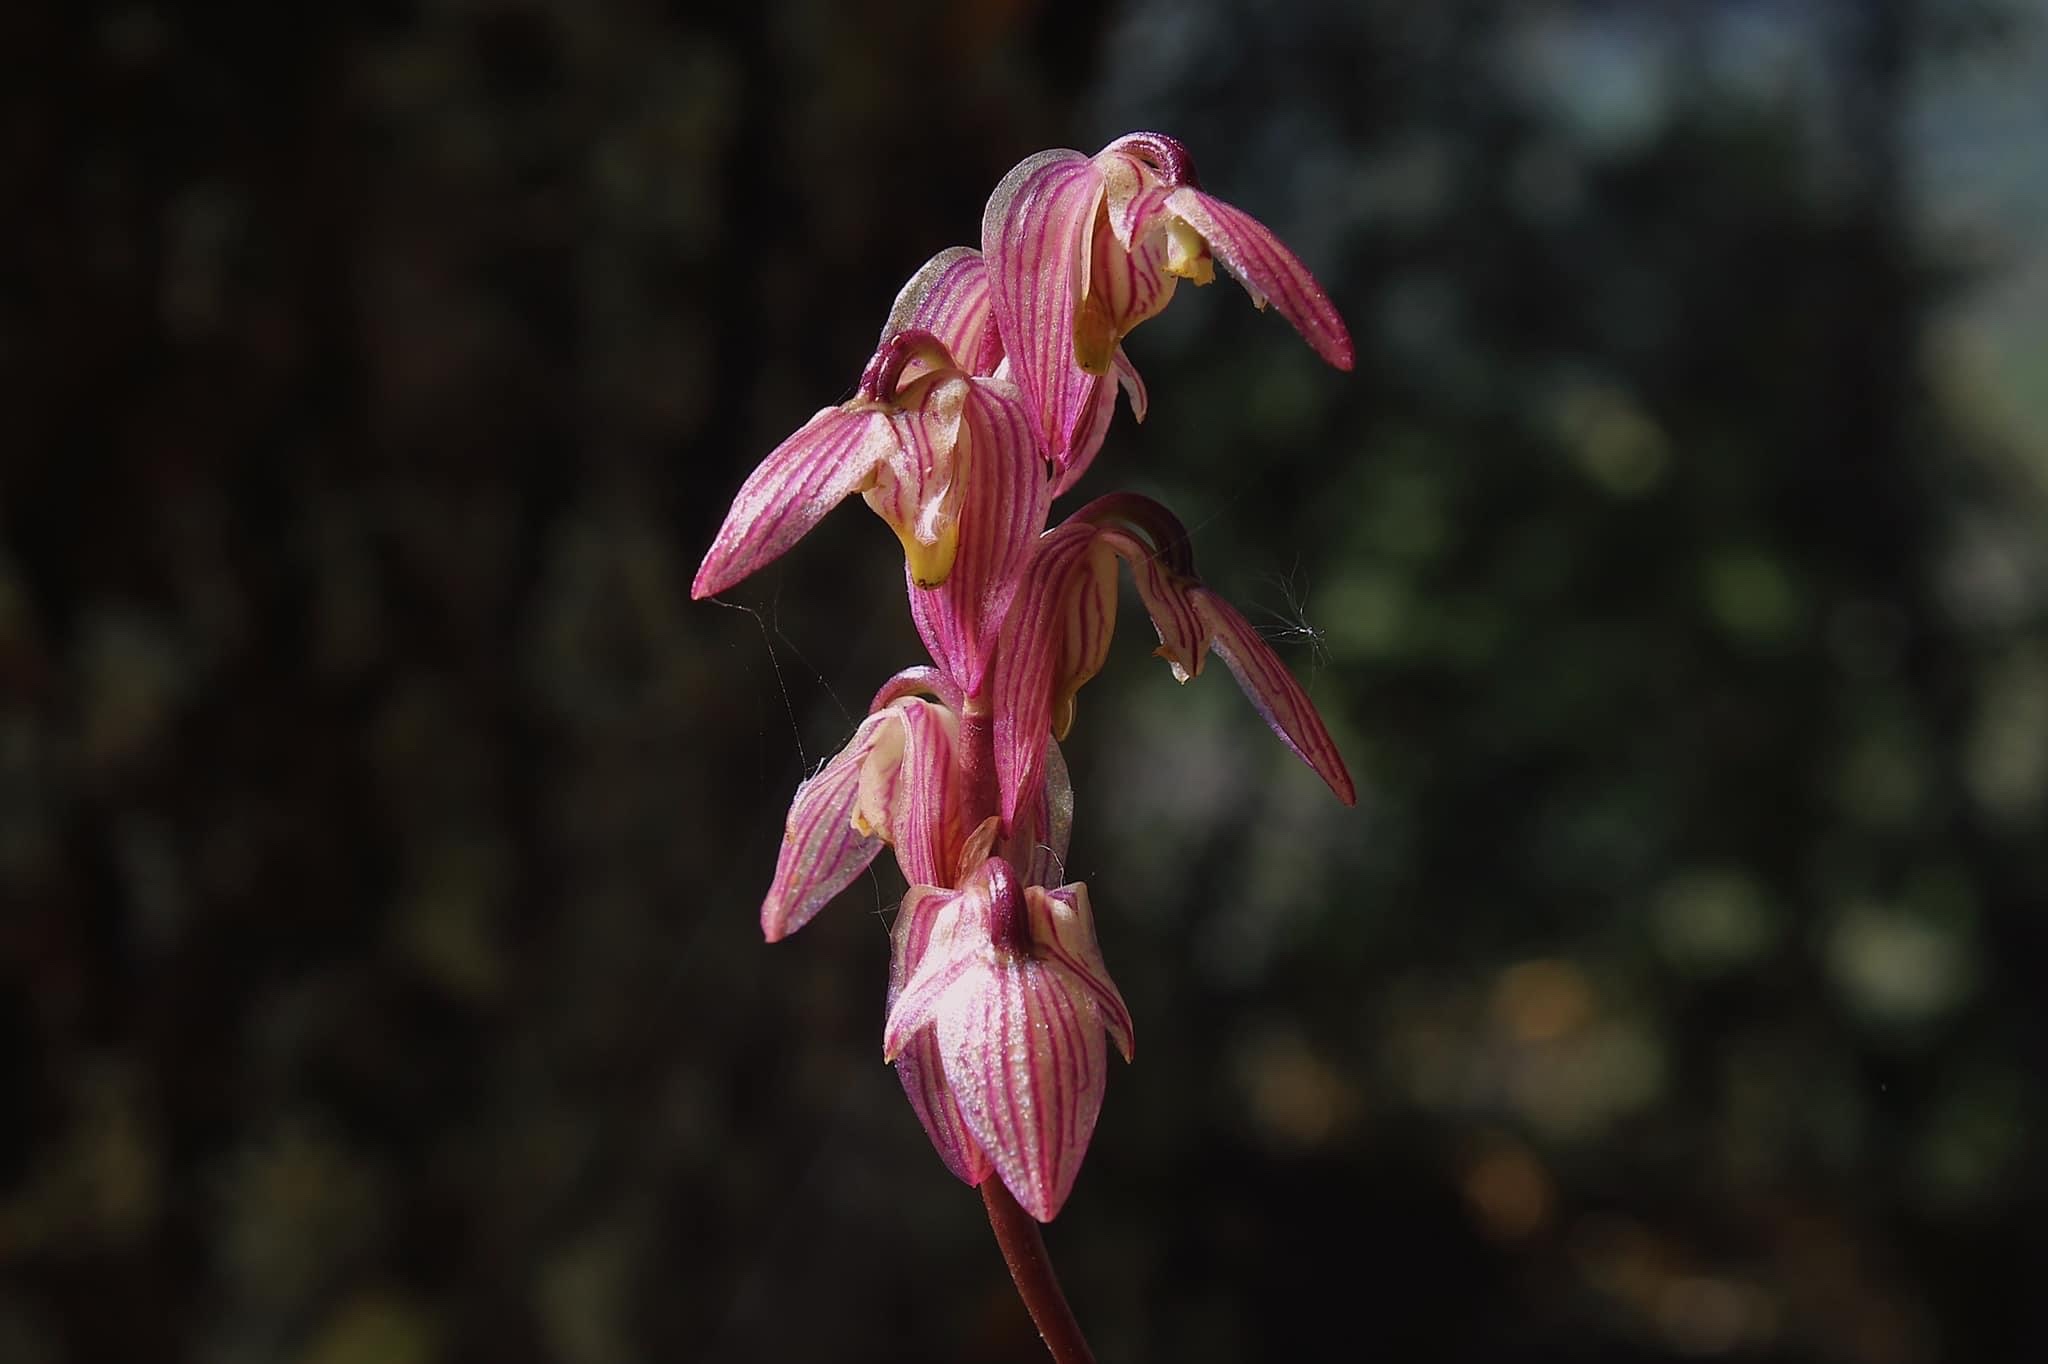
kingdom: Plantae
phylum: Tracheophyta
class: Liliopsida
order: Asparagales
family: Orchidaceae
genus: Bulbophyllum
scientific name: Bulbophyllum medioximum
